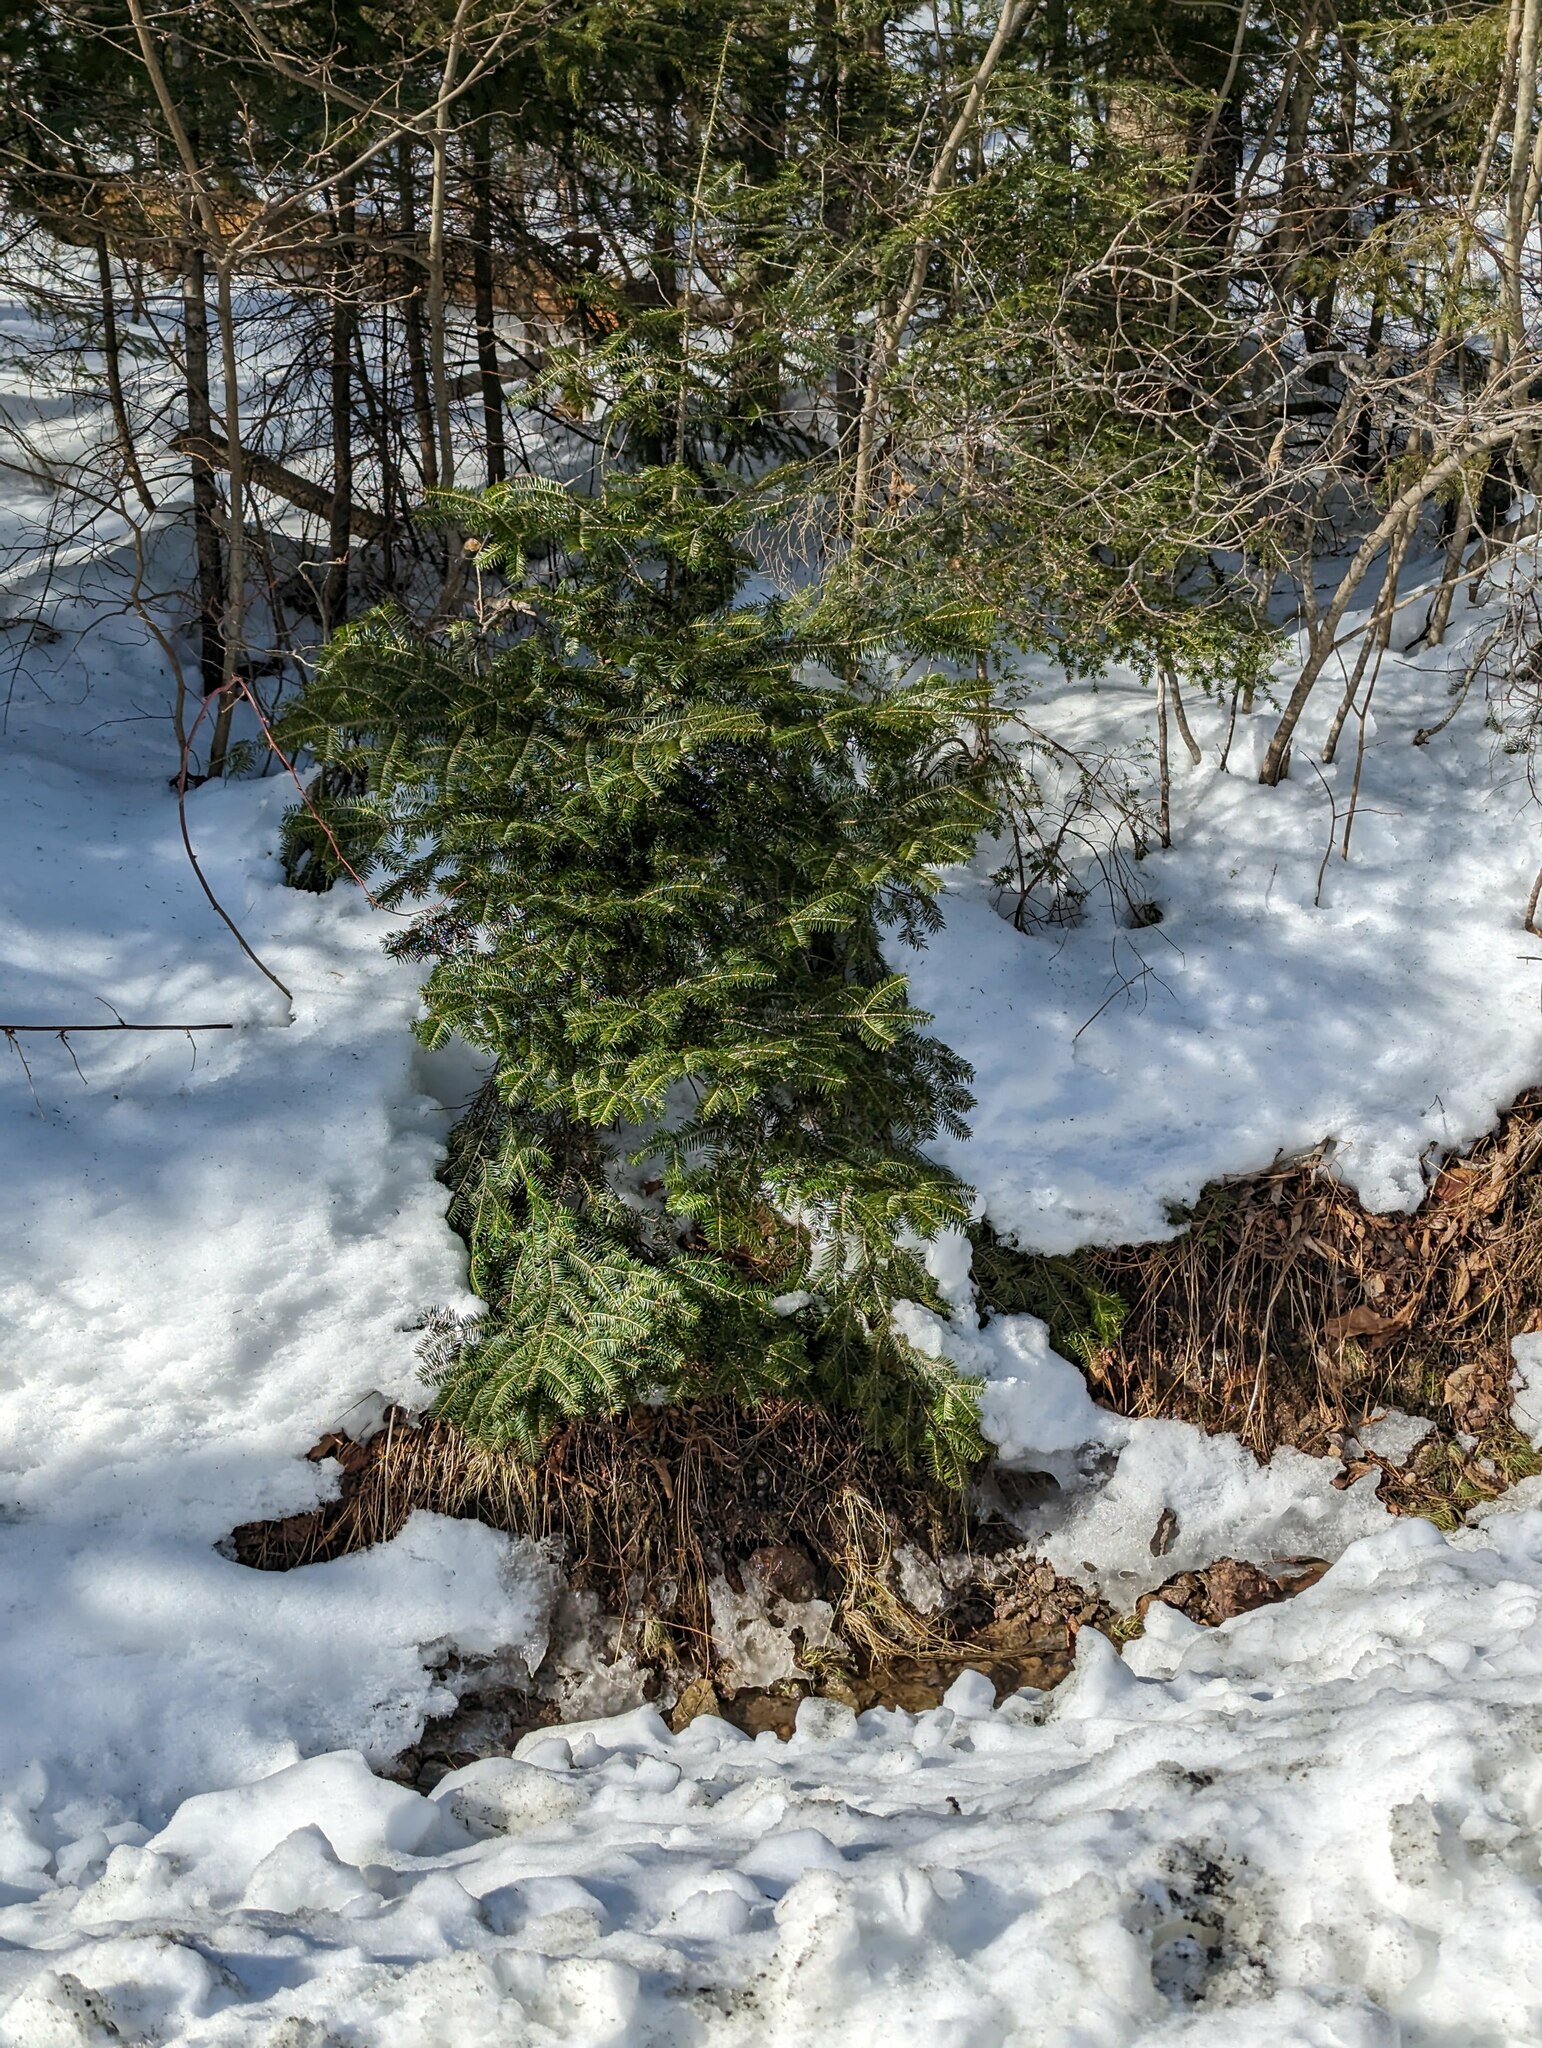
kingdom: Plantae
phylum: Tracheophyta
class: Pinopsida
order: Pinales
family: Pinaceae
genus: Abies
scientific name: Abies balsamea
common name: Balsam fir
